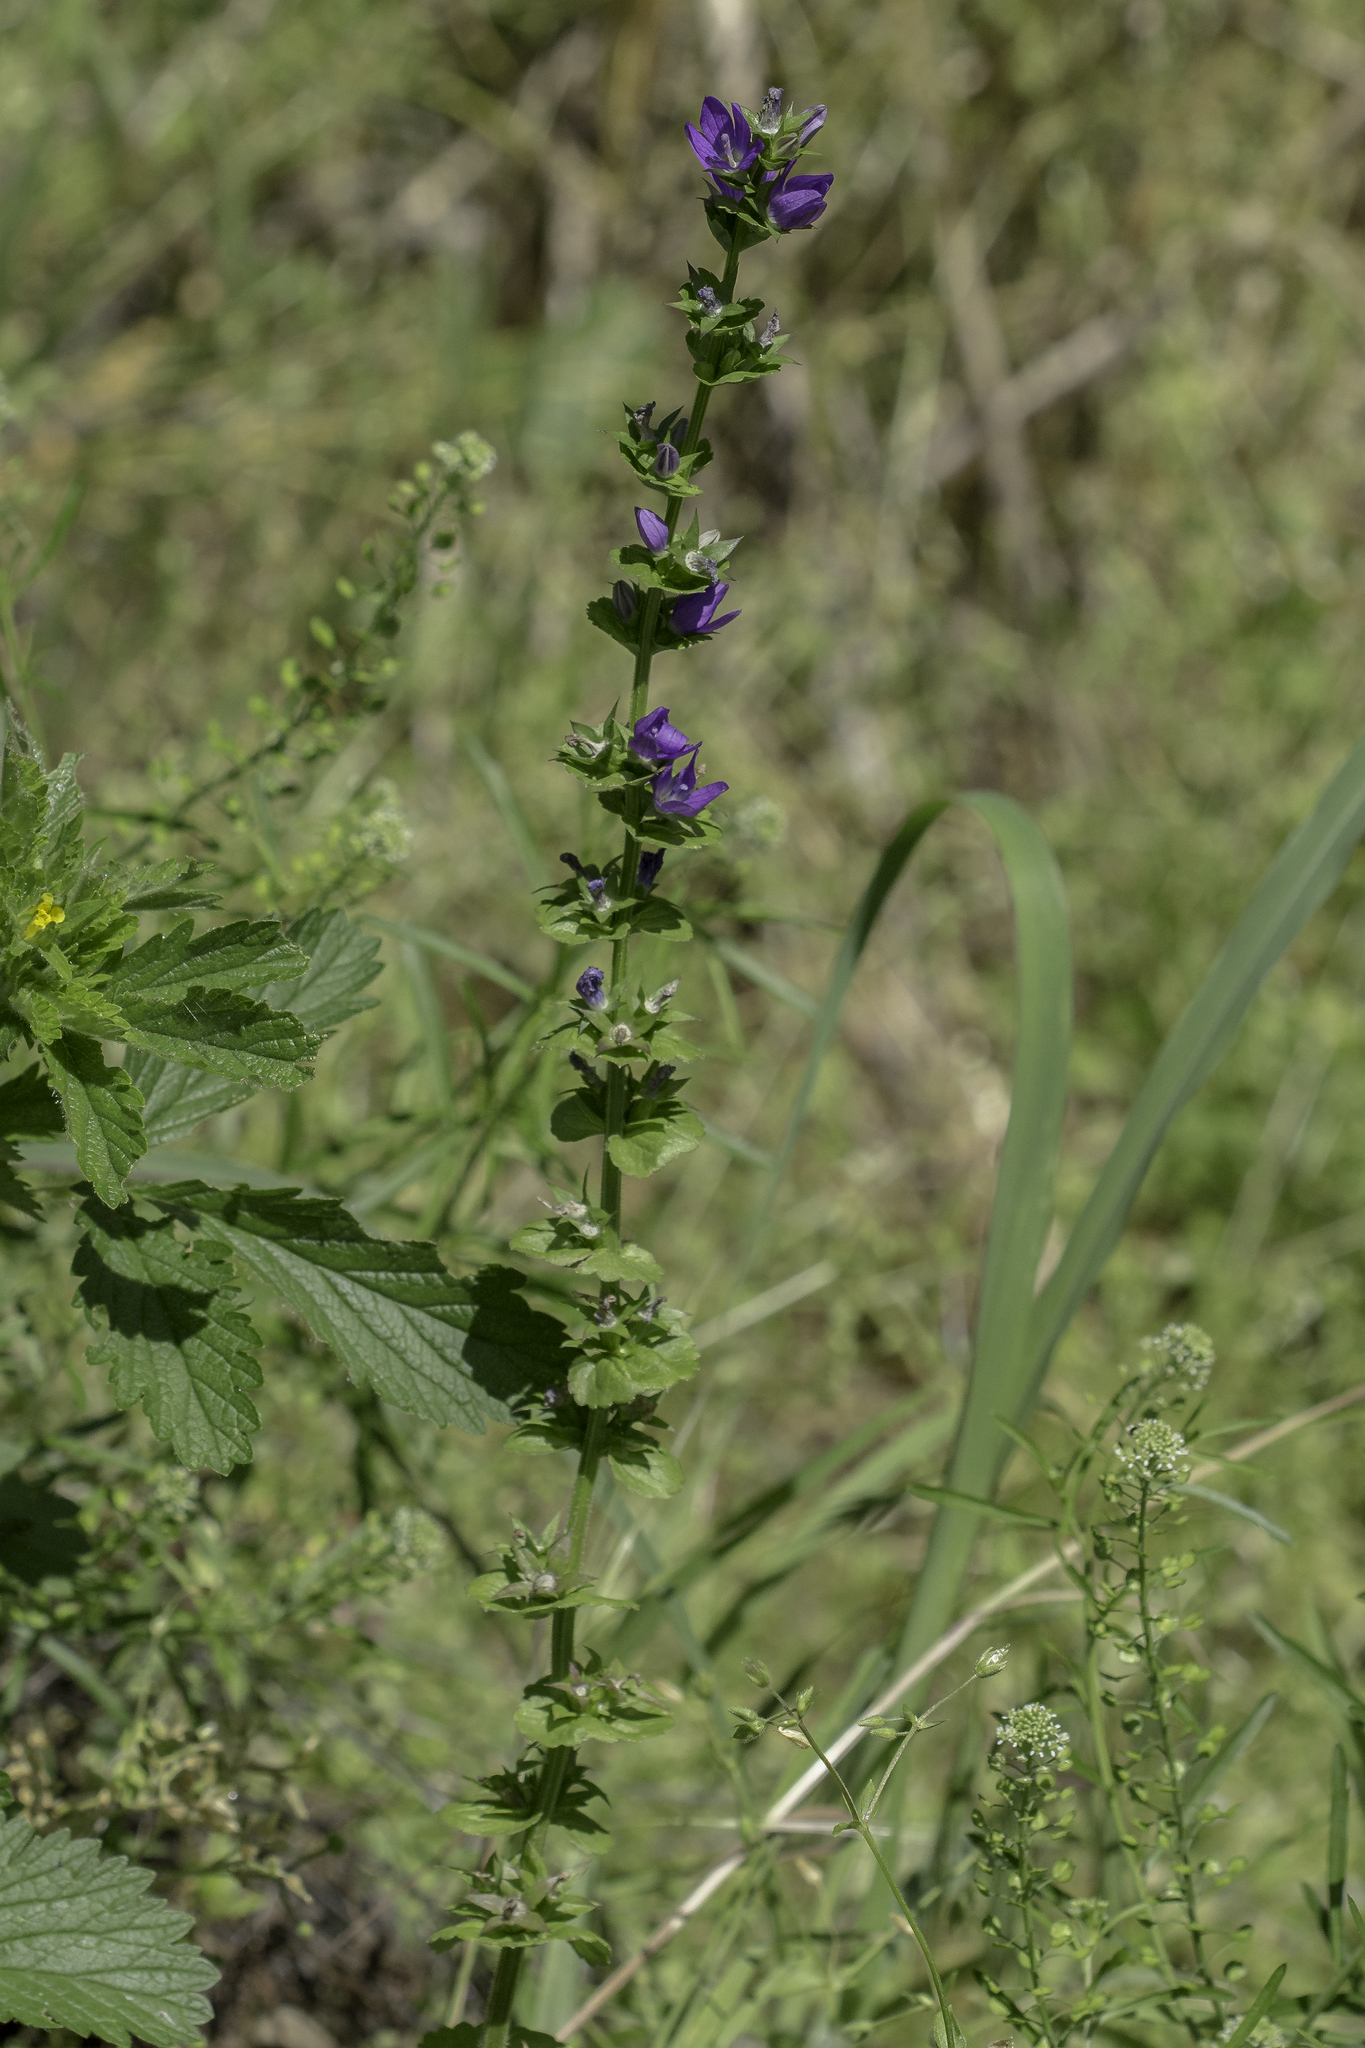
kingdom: Plantae
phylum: Tracheophyta
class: Magnoliopsida
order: Asterales
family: Campanulaceae
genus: Triodanis
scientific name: Triodanis perfoliata
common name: Clasping venus' looking-glass
